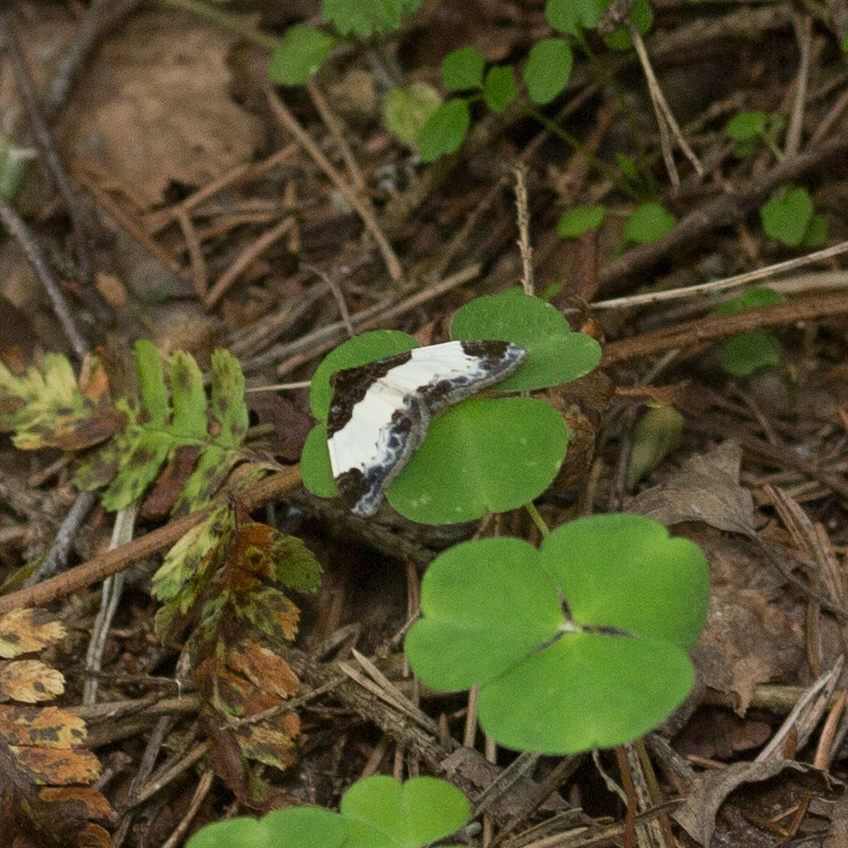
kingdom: Animalia
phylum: Arthropoda
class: Insecta
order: Lepidoptera
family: Geometridae
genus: Mesoleuca
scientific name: Mesoleuca albicillata
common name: Beautiful carpet
